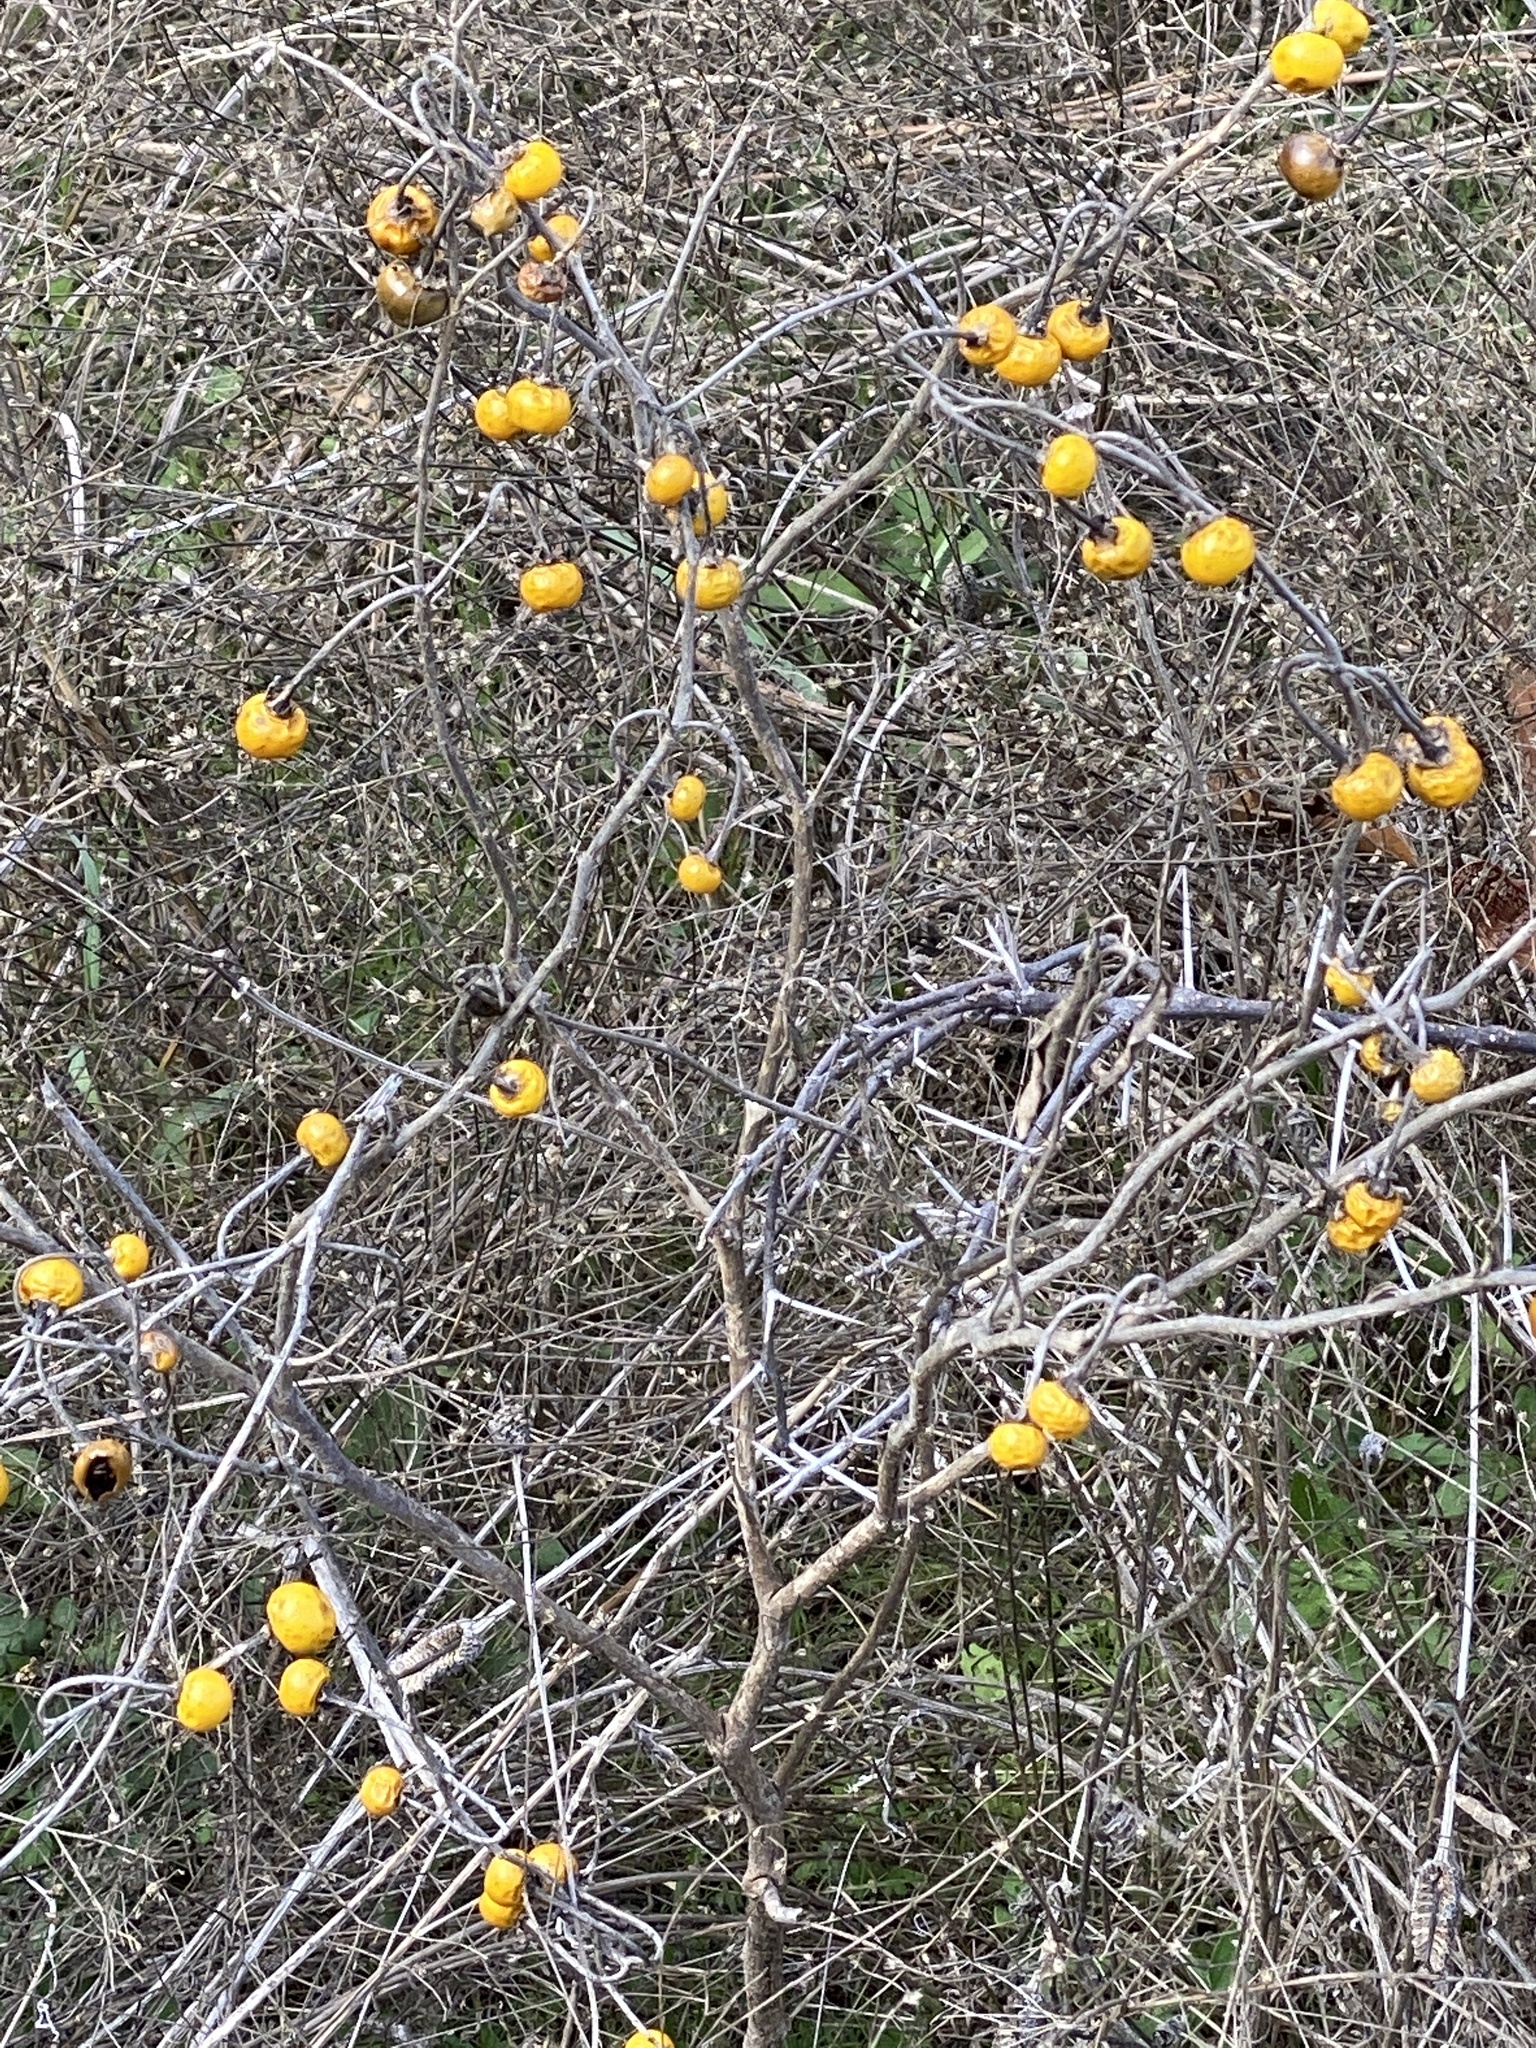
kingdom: Plantae
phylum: Tracheophyta
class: Magnoliopsida
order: Solanales
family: Solanaceae
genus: Solanum
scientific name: Solanum elaeagnifolium
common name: Silverleaf nightshade
